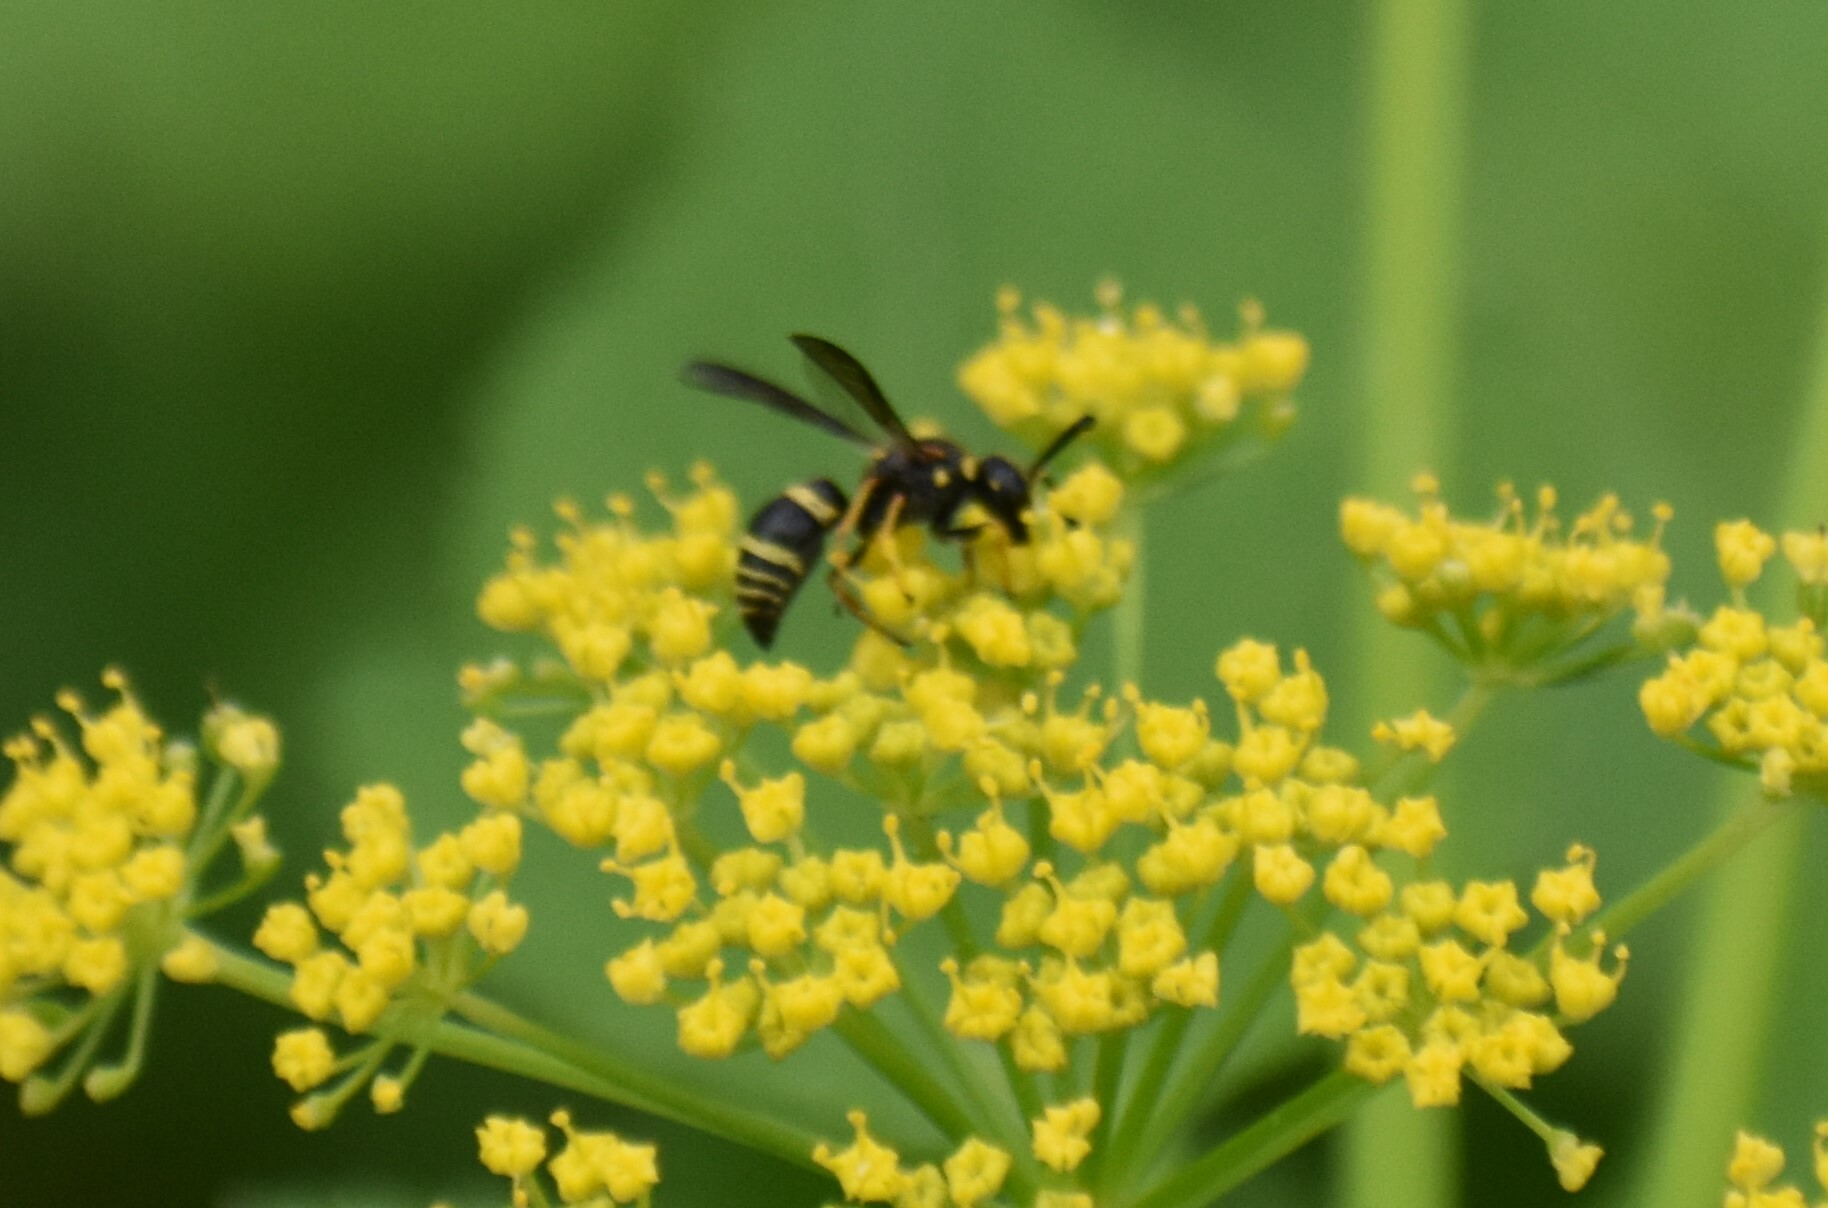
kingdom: Animalia
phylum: Arthropoda
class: Insecta
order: Hymenoptera
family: Eumenidae
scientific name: Eumenidae
